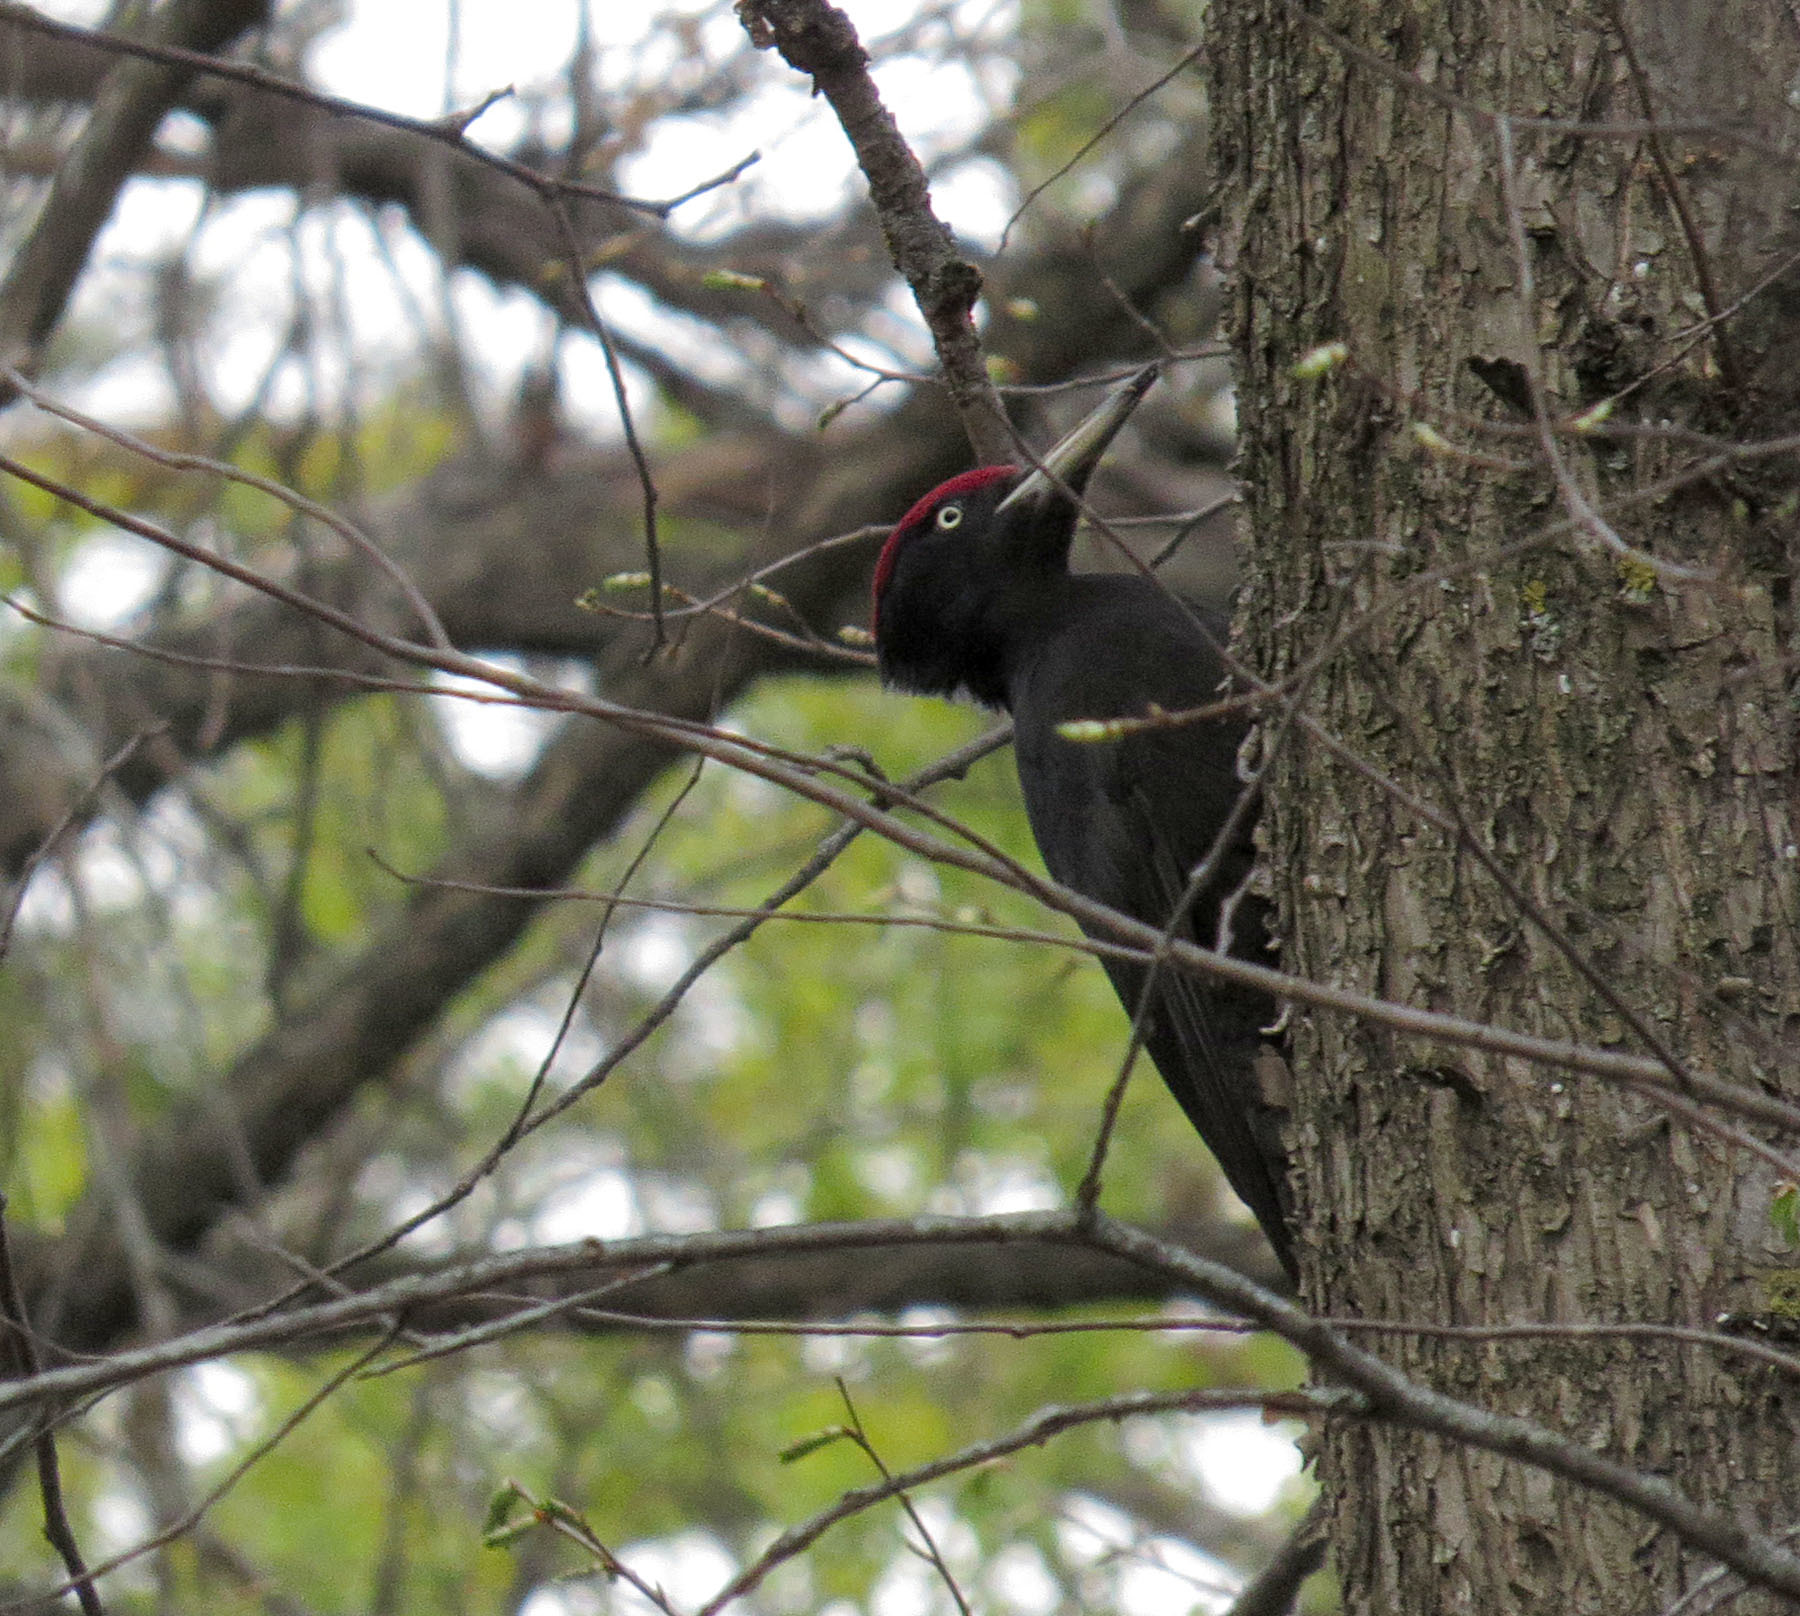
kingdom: Animalia
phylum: Chordata
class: Aves
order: Piciformes
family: Picidae
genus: Dryocopus
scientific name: Dryocopus martius
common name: Black woodpecker
